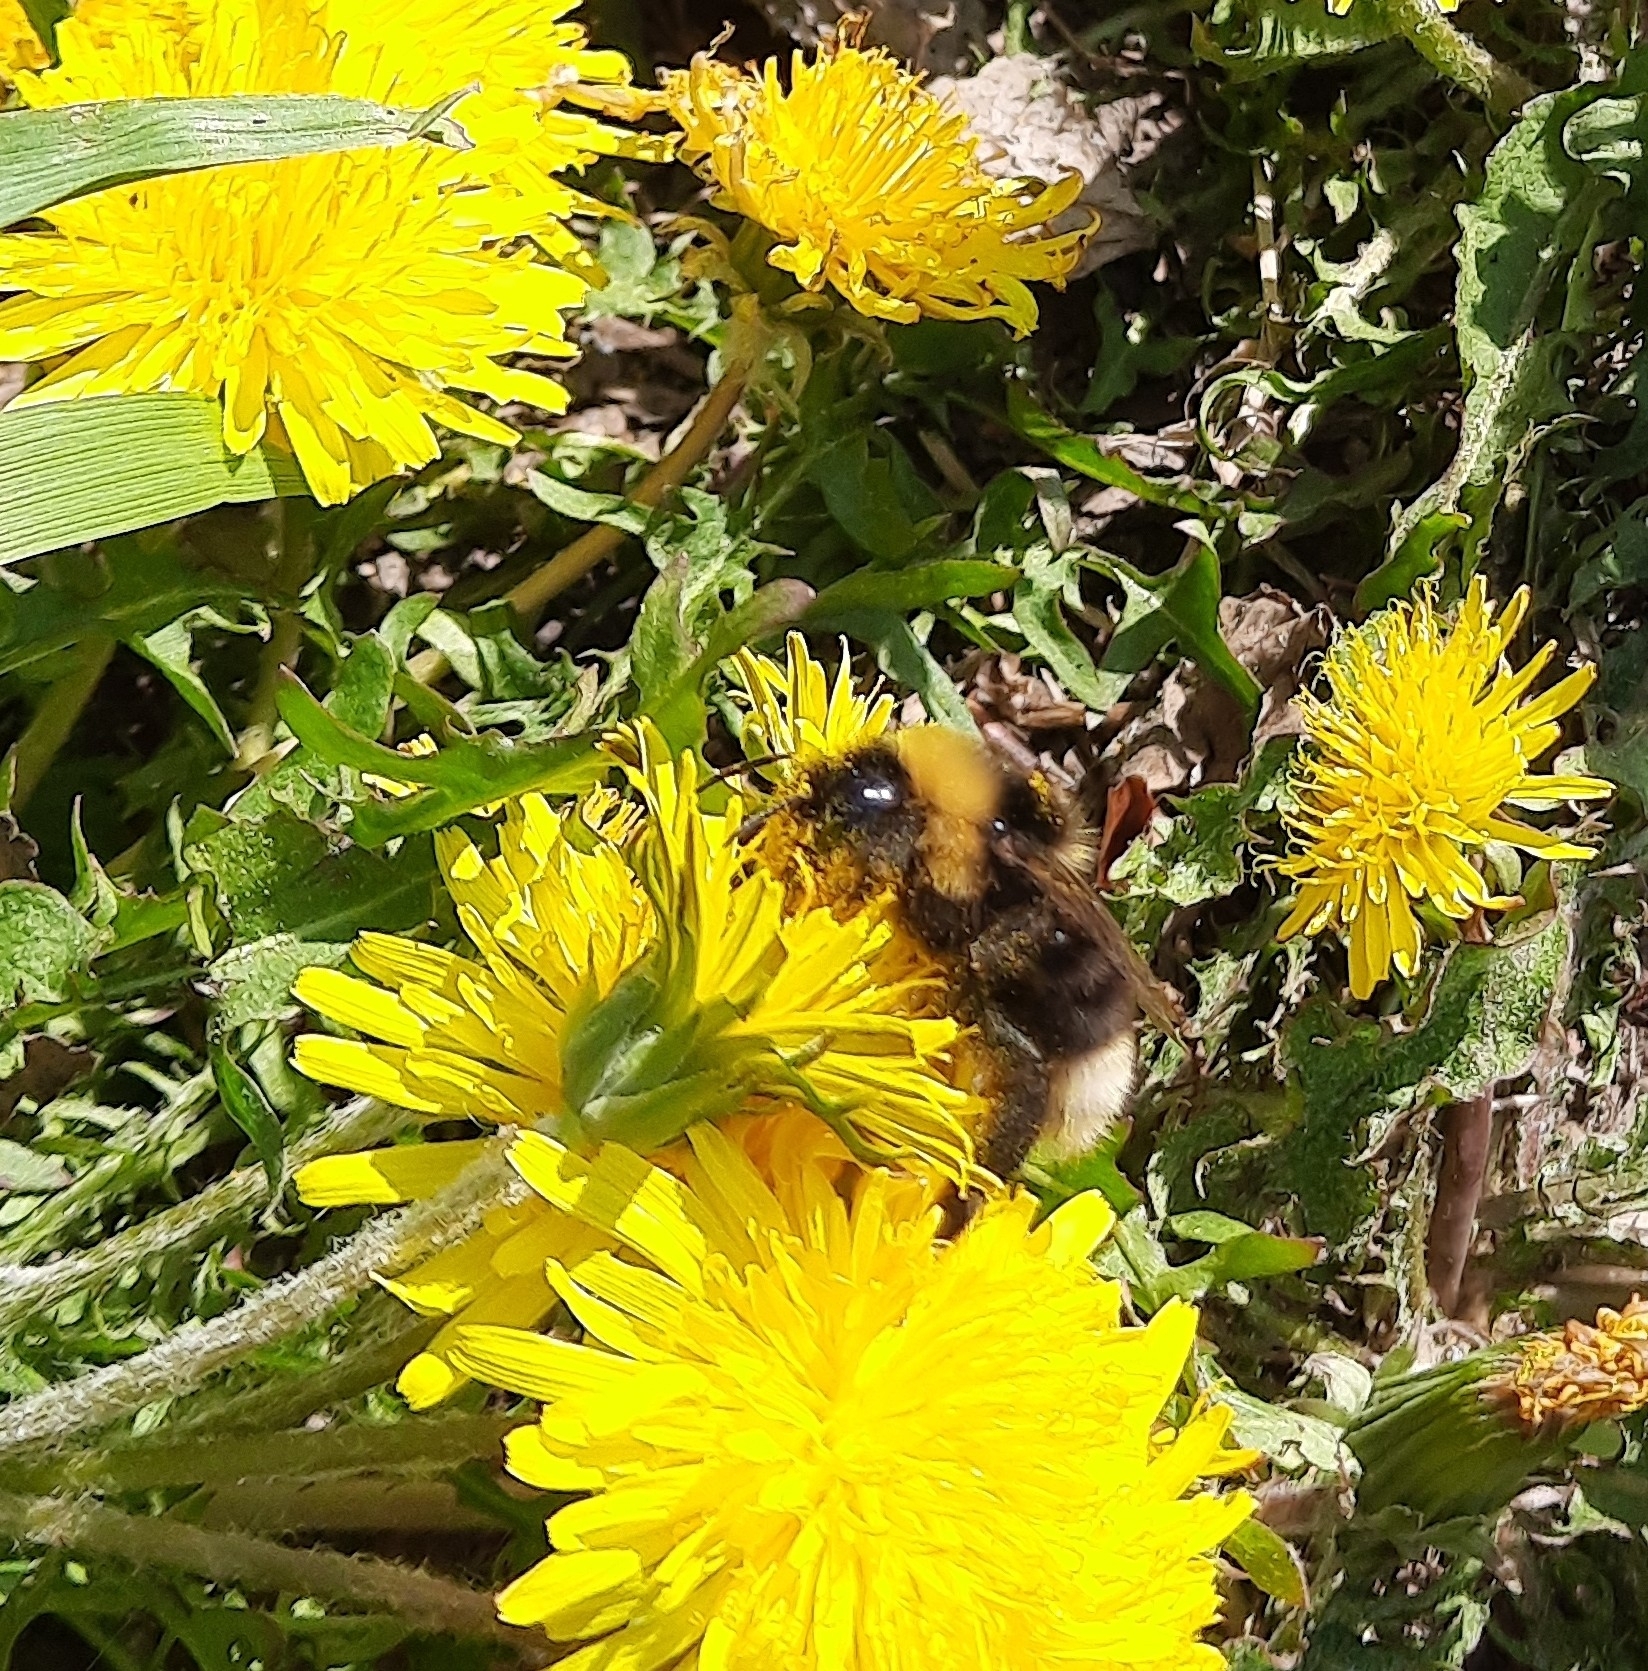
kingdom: Animalia
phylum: Arthropoda
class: Insecta
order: Hymenoptera
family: Apidae
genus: Bombus
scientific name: Bombus bohemicus
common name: Gypsy cuckoo bee
